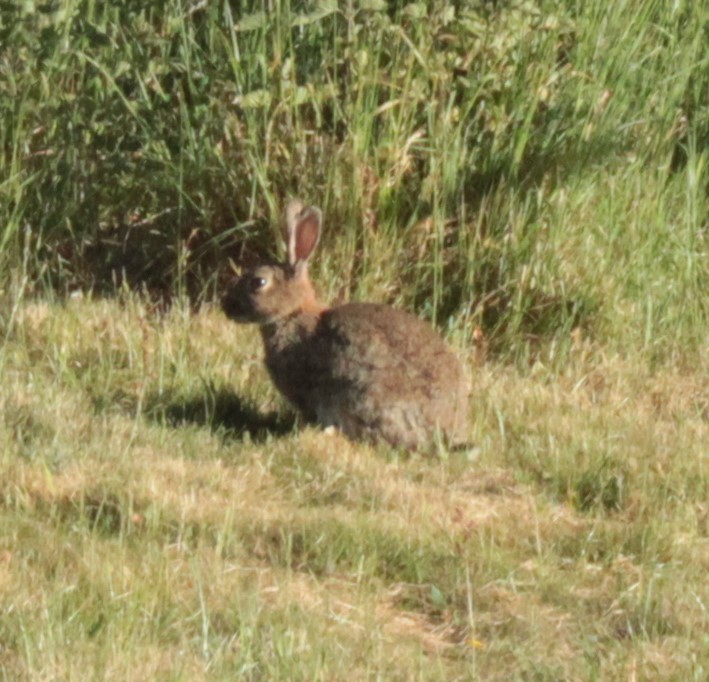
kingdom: Animalia
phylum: Chordata
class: Mammalia
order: Lagomorpha
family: Leporidae
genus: Oryctolagus
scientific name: Oryctolagus cuniculus
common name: European rabbit
